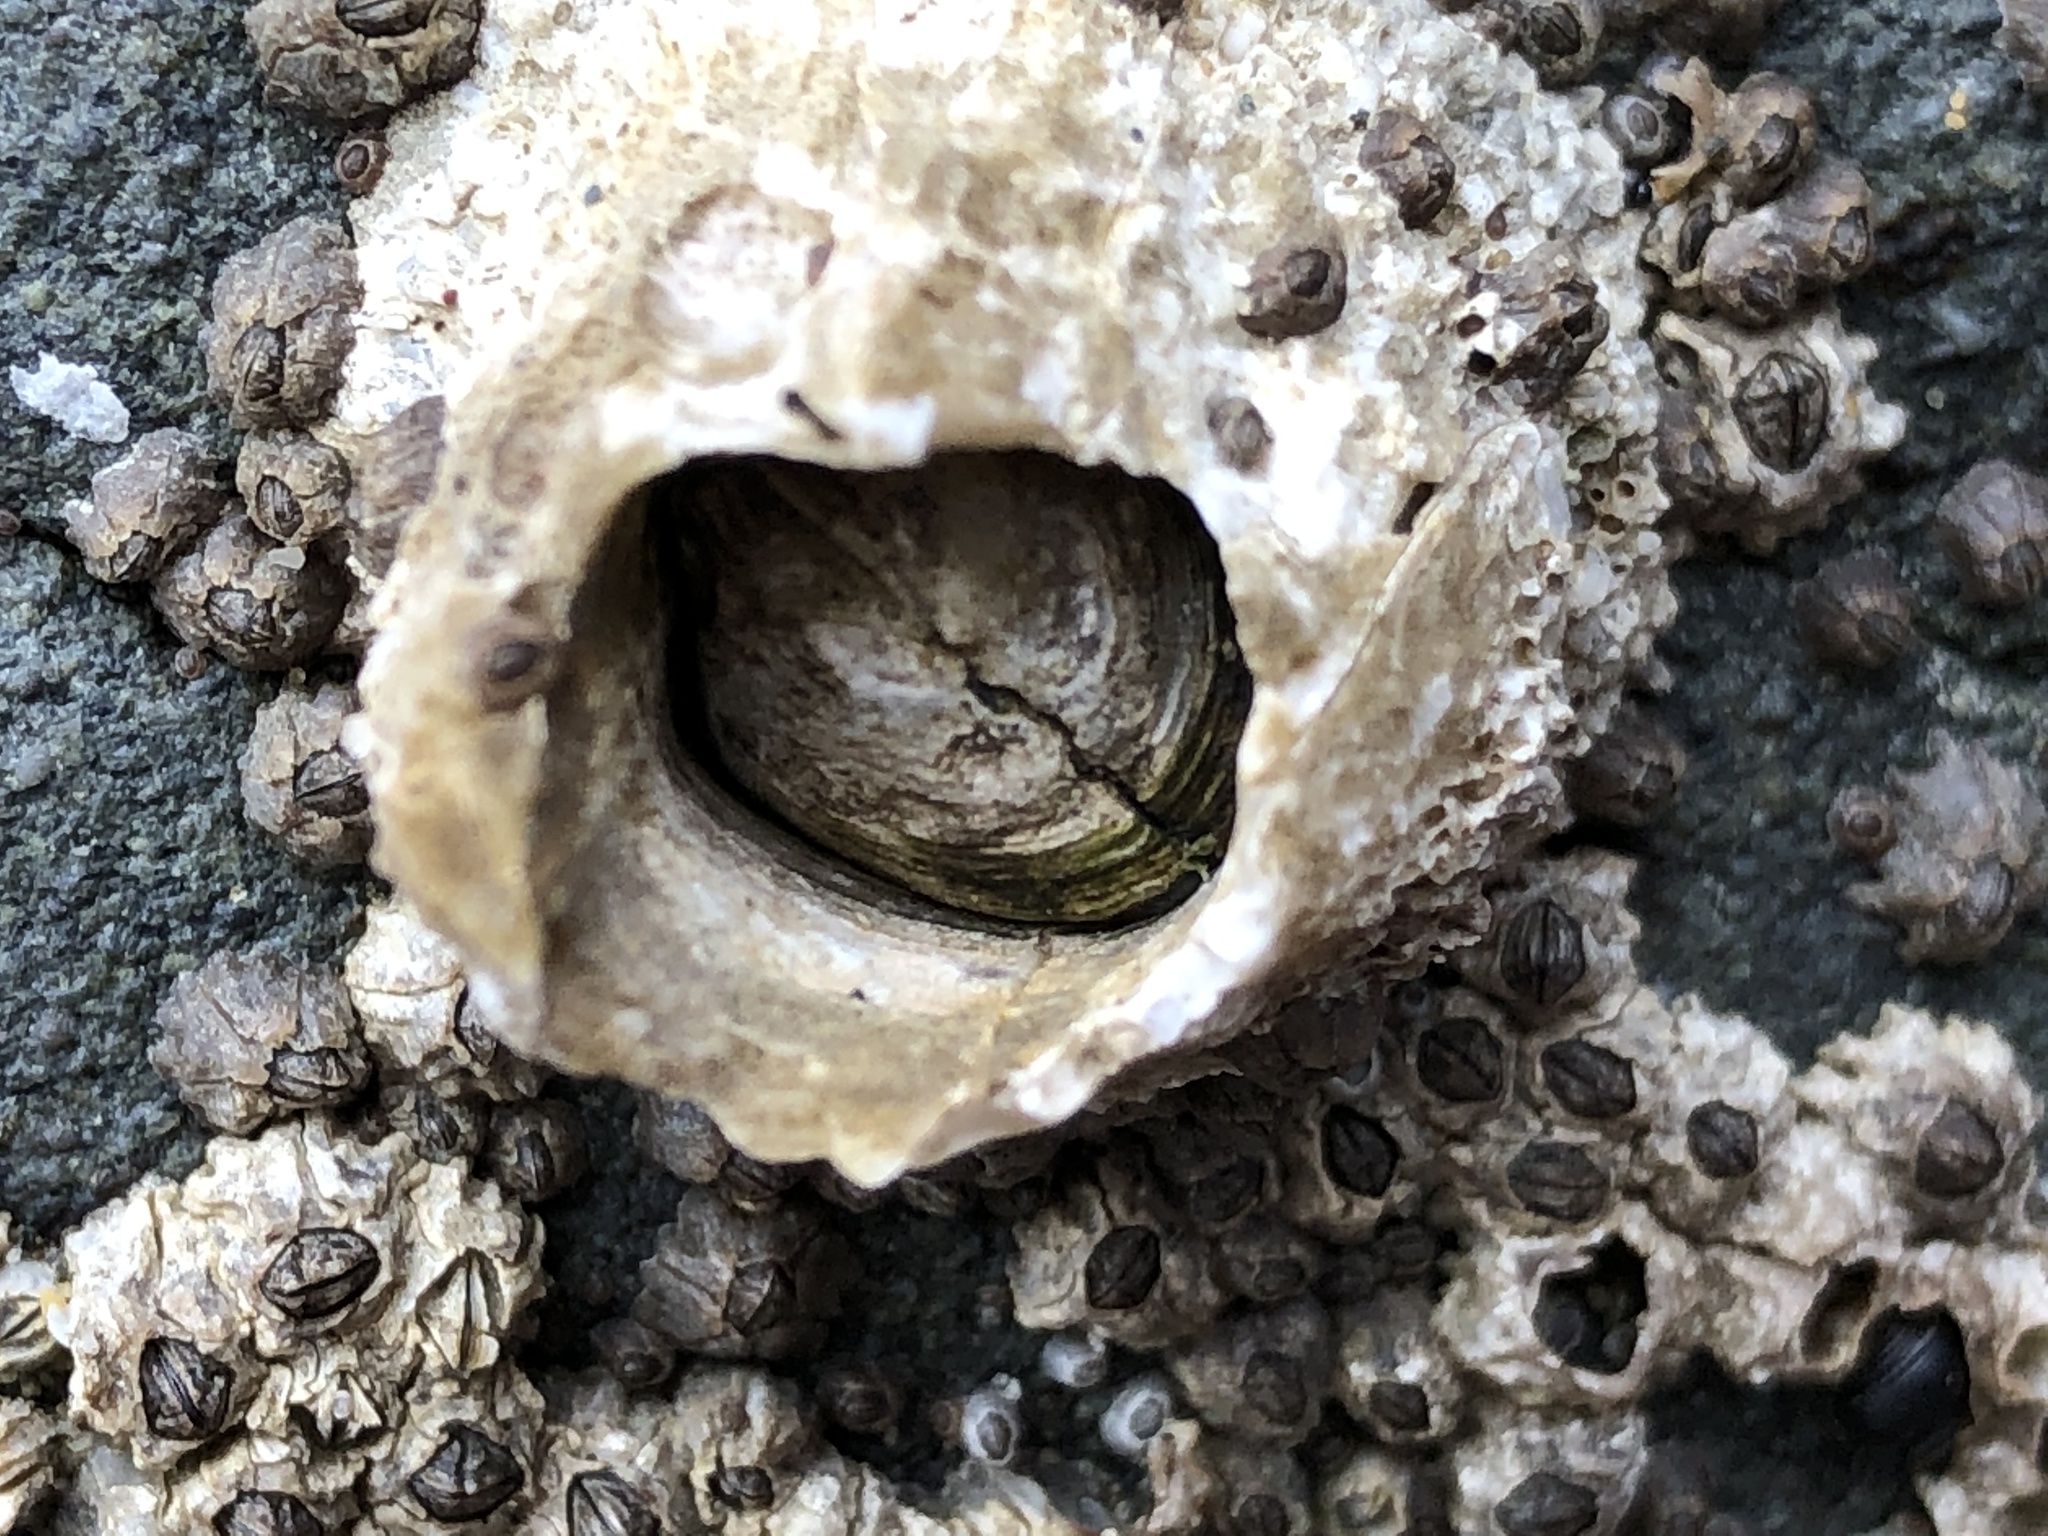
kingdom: Animalia
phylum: Arthropoda
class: Maxillopoda
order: Sessilia
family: Archaeobalanidae
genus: Semibalanus
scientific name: Semibalanus cariosus
